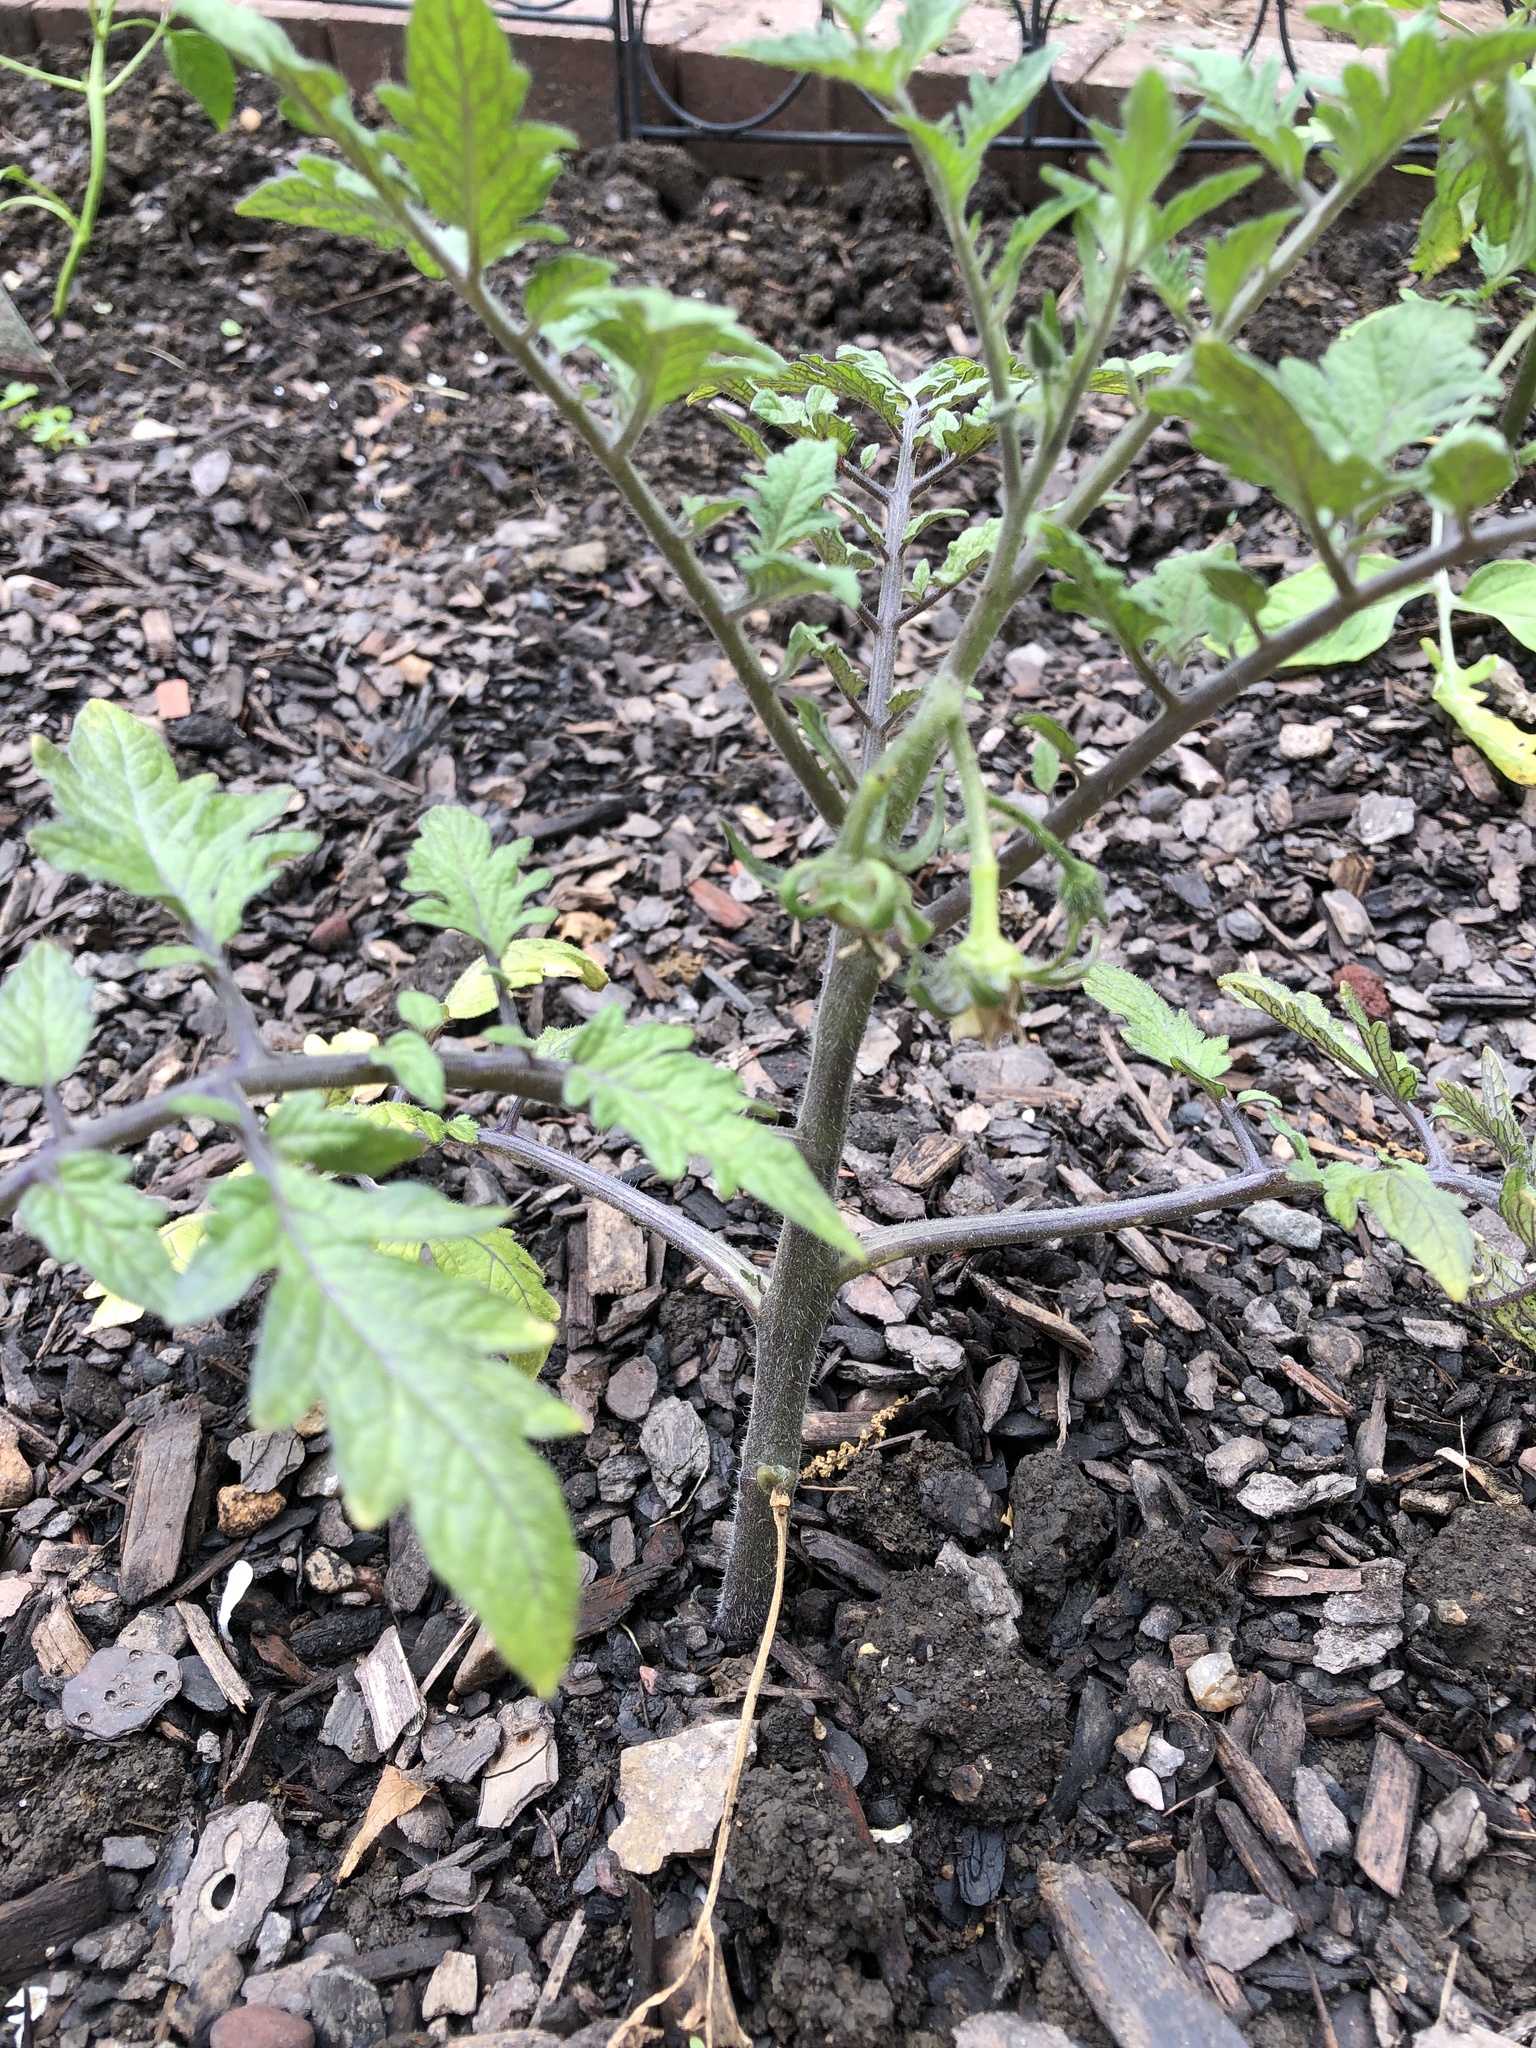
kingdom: Plantae
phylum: Tracheophyta
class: Magnoliopsida
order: Solanales
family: Solanaceae
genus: Solanum
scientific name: Solanum lycopersicum
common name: Garden tomato
